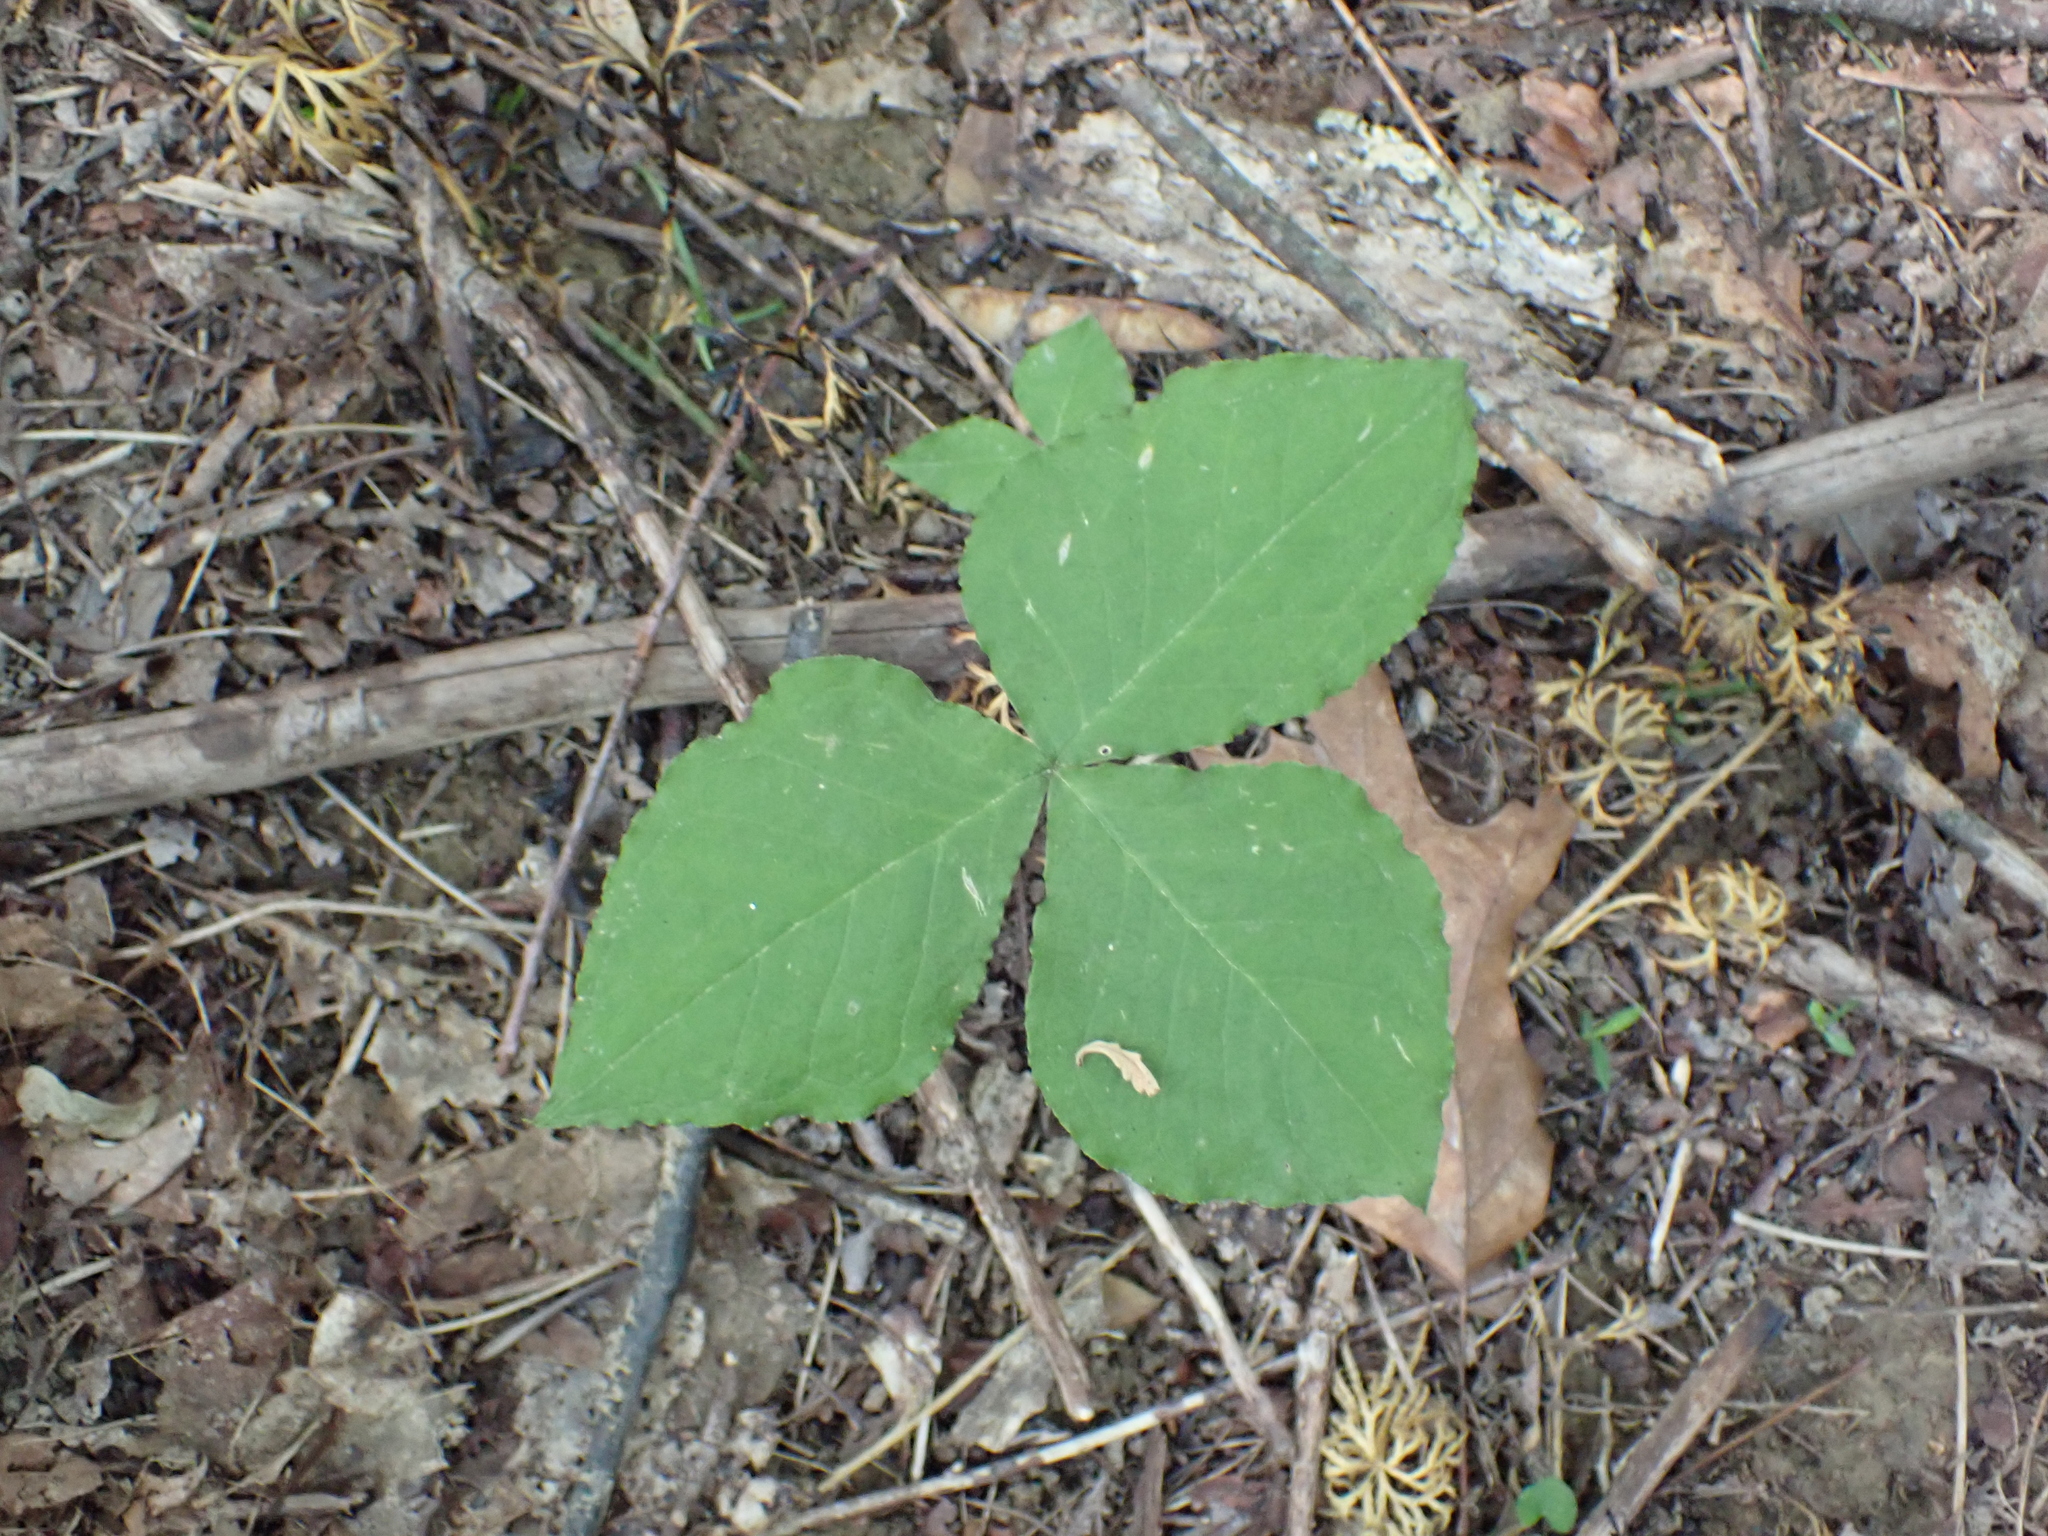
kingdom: Plantae
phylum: Tracheophyta
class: Liliopsida
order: Alismatales
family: Araceae
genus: Arisaema
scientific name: Arisaema triphyllum
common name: Jack-in-the-pulpit
